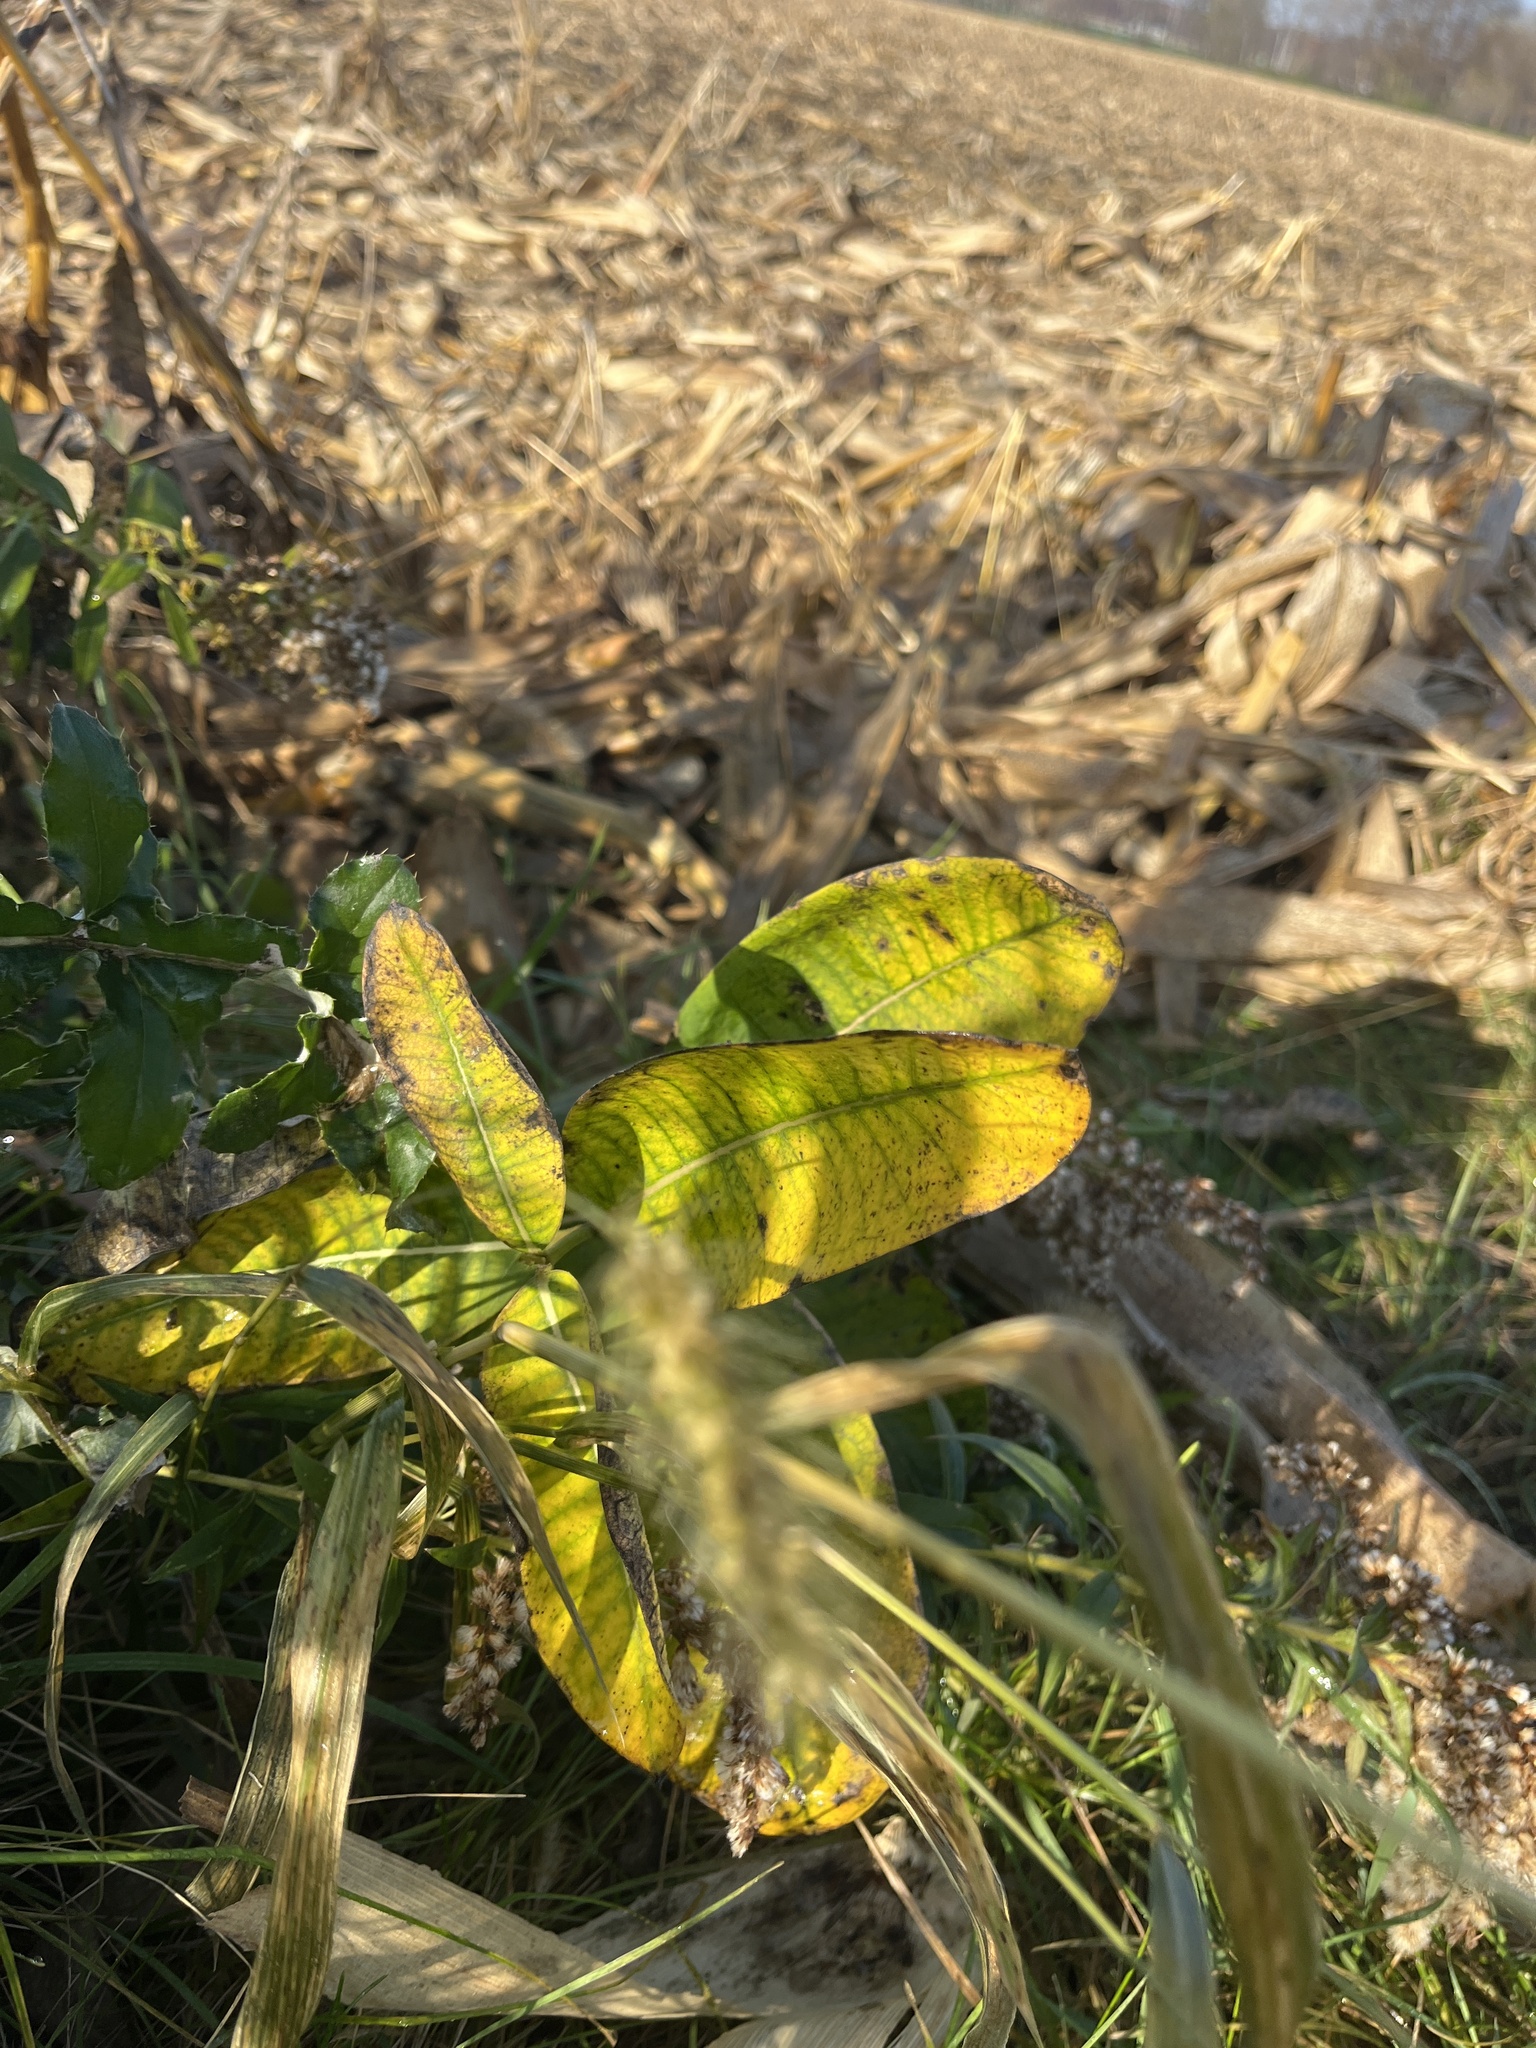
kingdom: Plantae
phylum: Tracheophyta
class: Magnoliopsida
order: Gentianales
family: Apocynaceae
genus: Asclepias
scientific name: Asclepias syriaca
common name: Common milkweed
